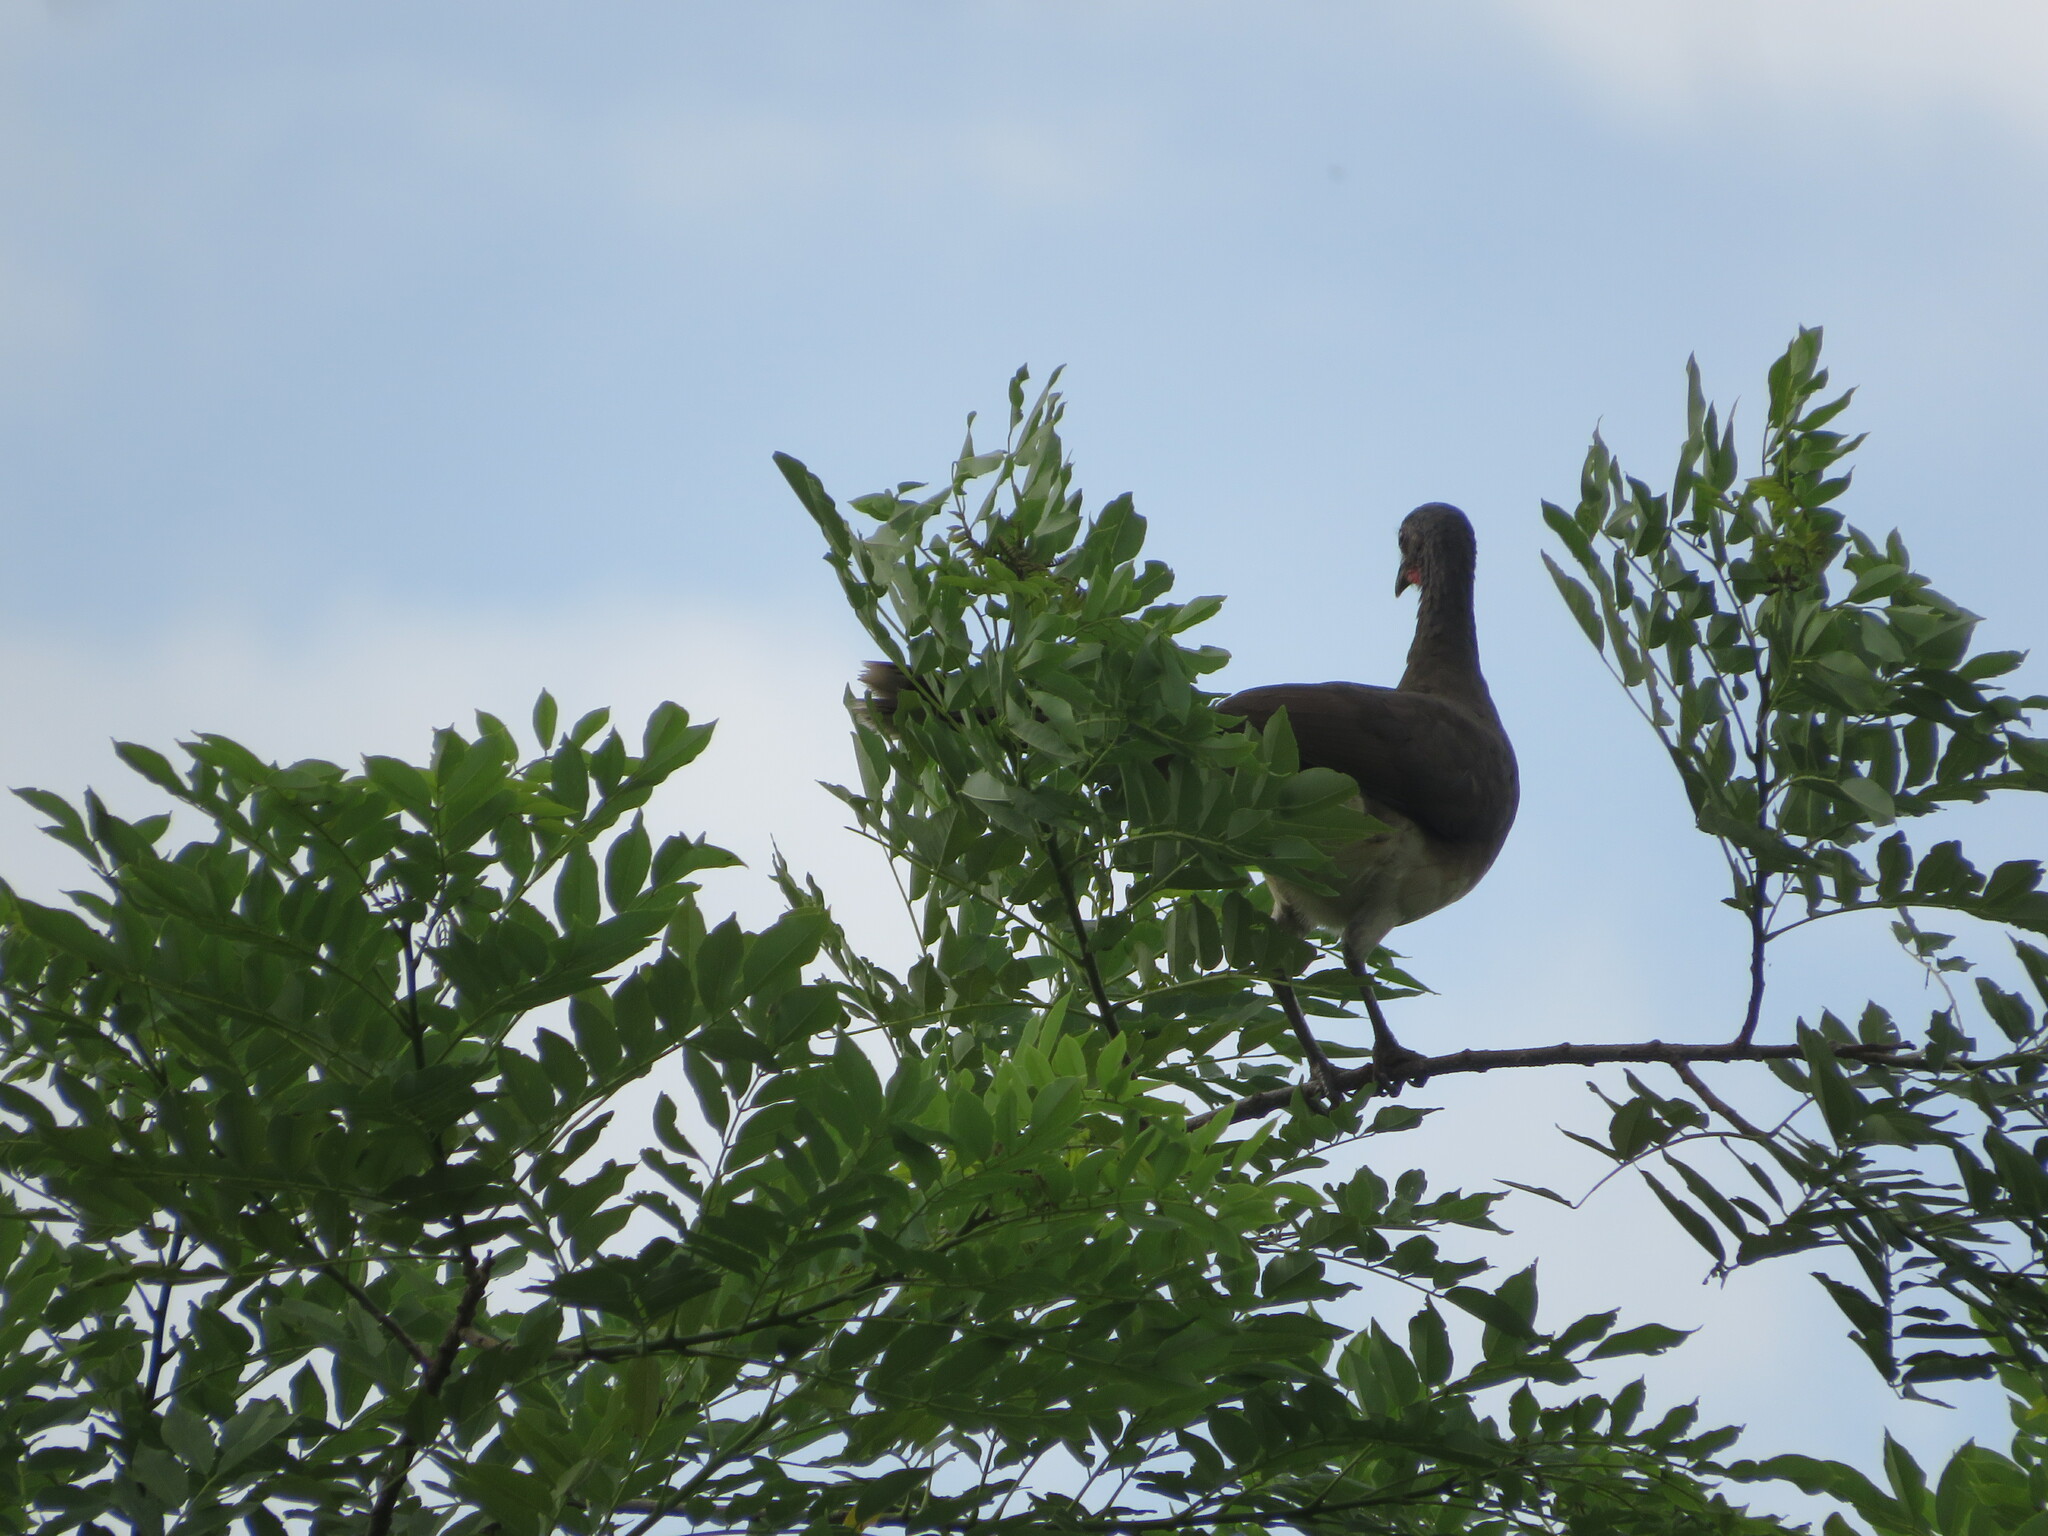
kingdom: Animalia
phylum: Chordata
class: Aves
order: Galliformes
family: Cracidae
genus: Ortalis
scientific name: Ortalis leucogastra
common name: White-bellied chachalaca
